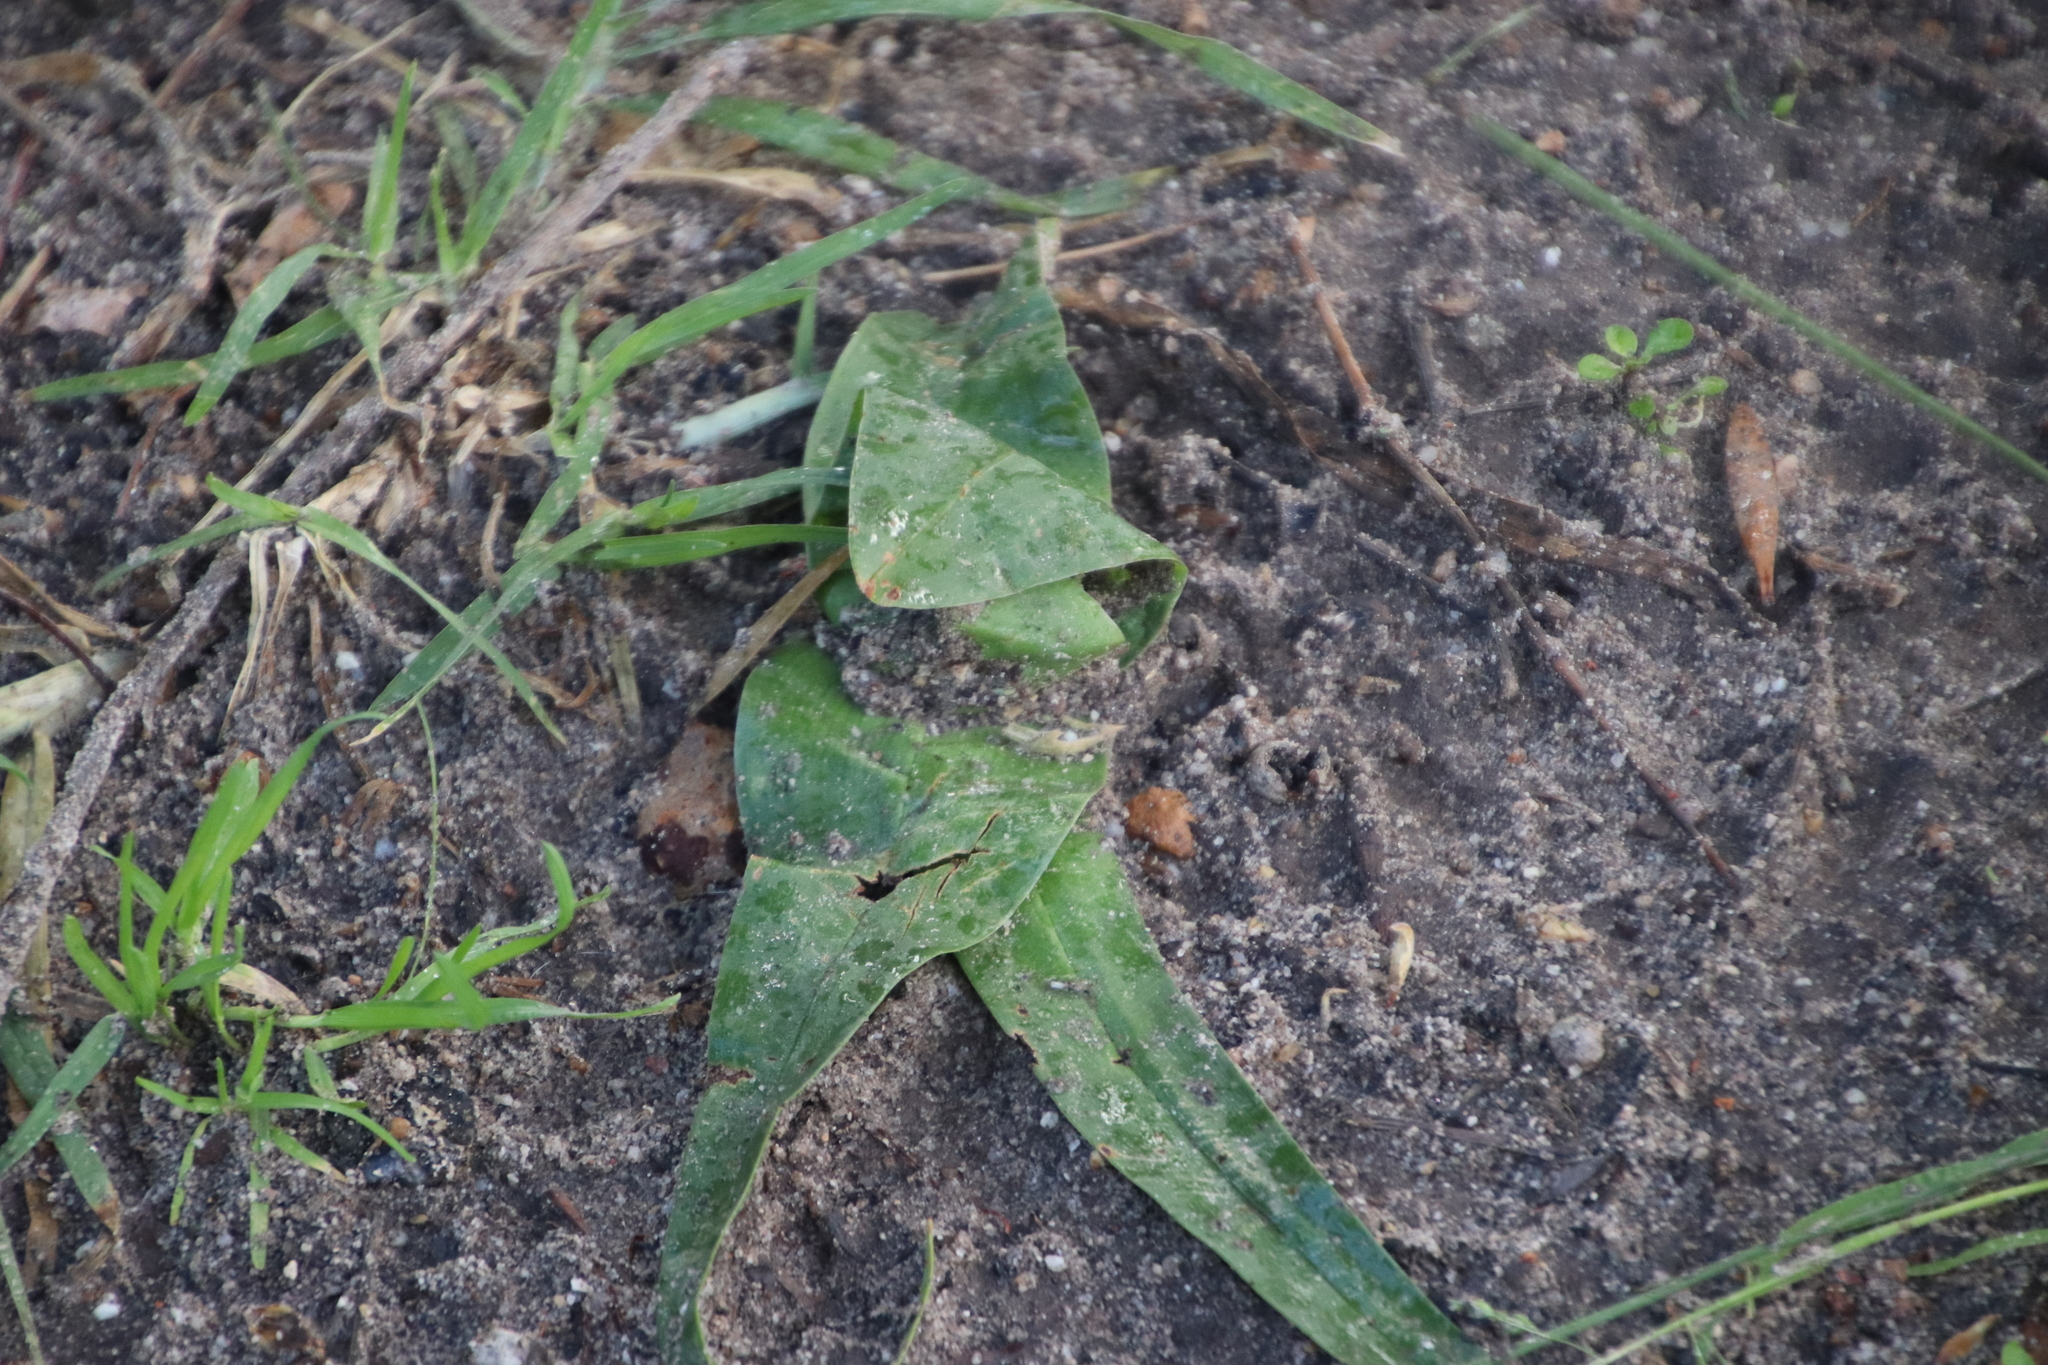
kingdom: Plantae
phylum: Tracheophyta
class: Liliopsida
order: Liliales
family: Colchicaceae
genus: Colchicum
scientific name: Colchicum eucomoides
